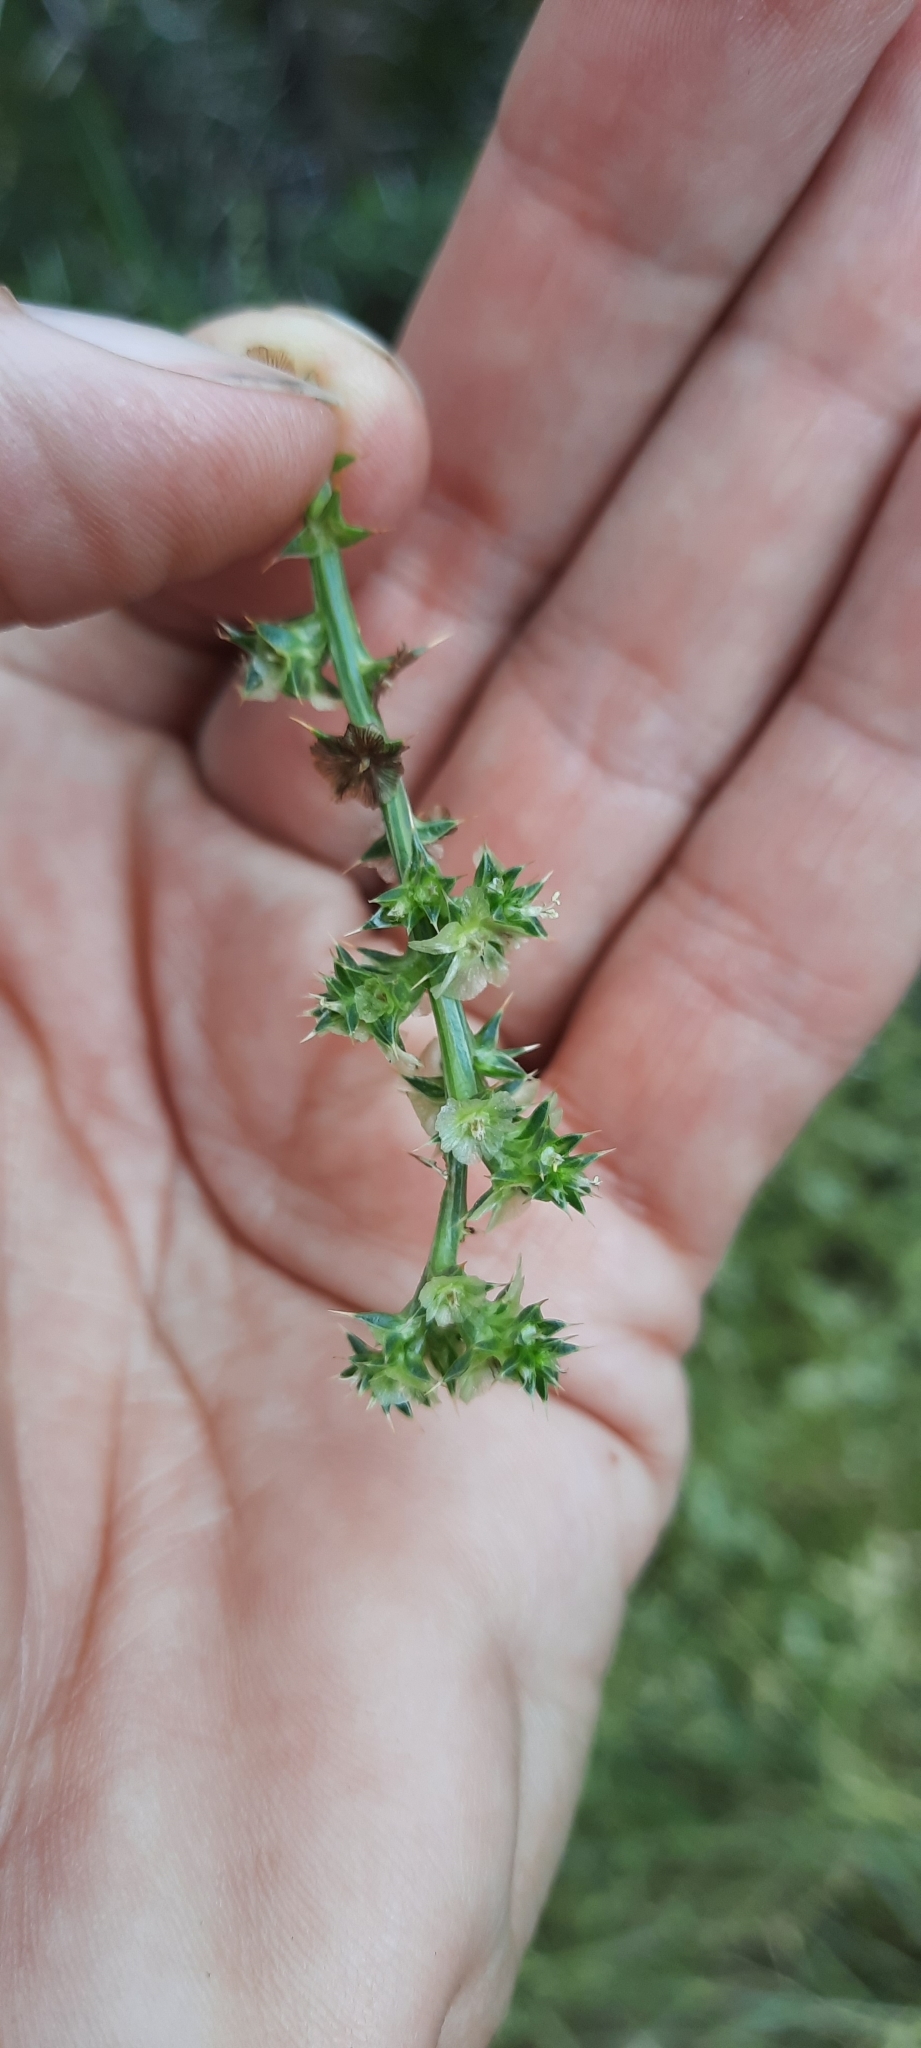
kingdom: Plantae
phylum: Tracheophyta
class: Magnoliopsida
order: Caryophyllales
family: Amaranthaceae
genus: Salsola
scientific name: Salsola kali
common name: Saltwort
